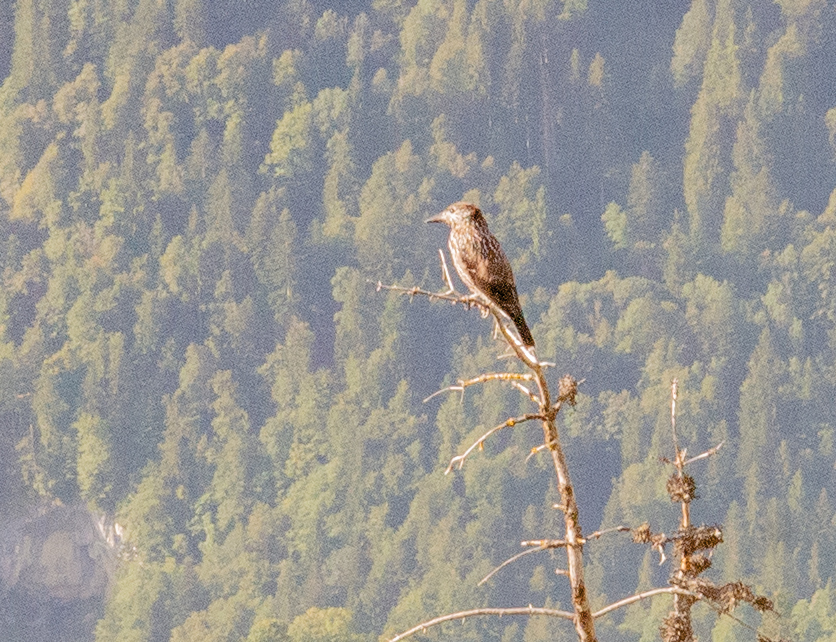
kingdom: Animalia
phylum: Chordata
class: Aves
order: Passeriformes
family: Corvidae
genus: Nucifraga
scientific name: Nucifraga caryocatactes
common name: Spotted nutcracker
